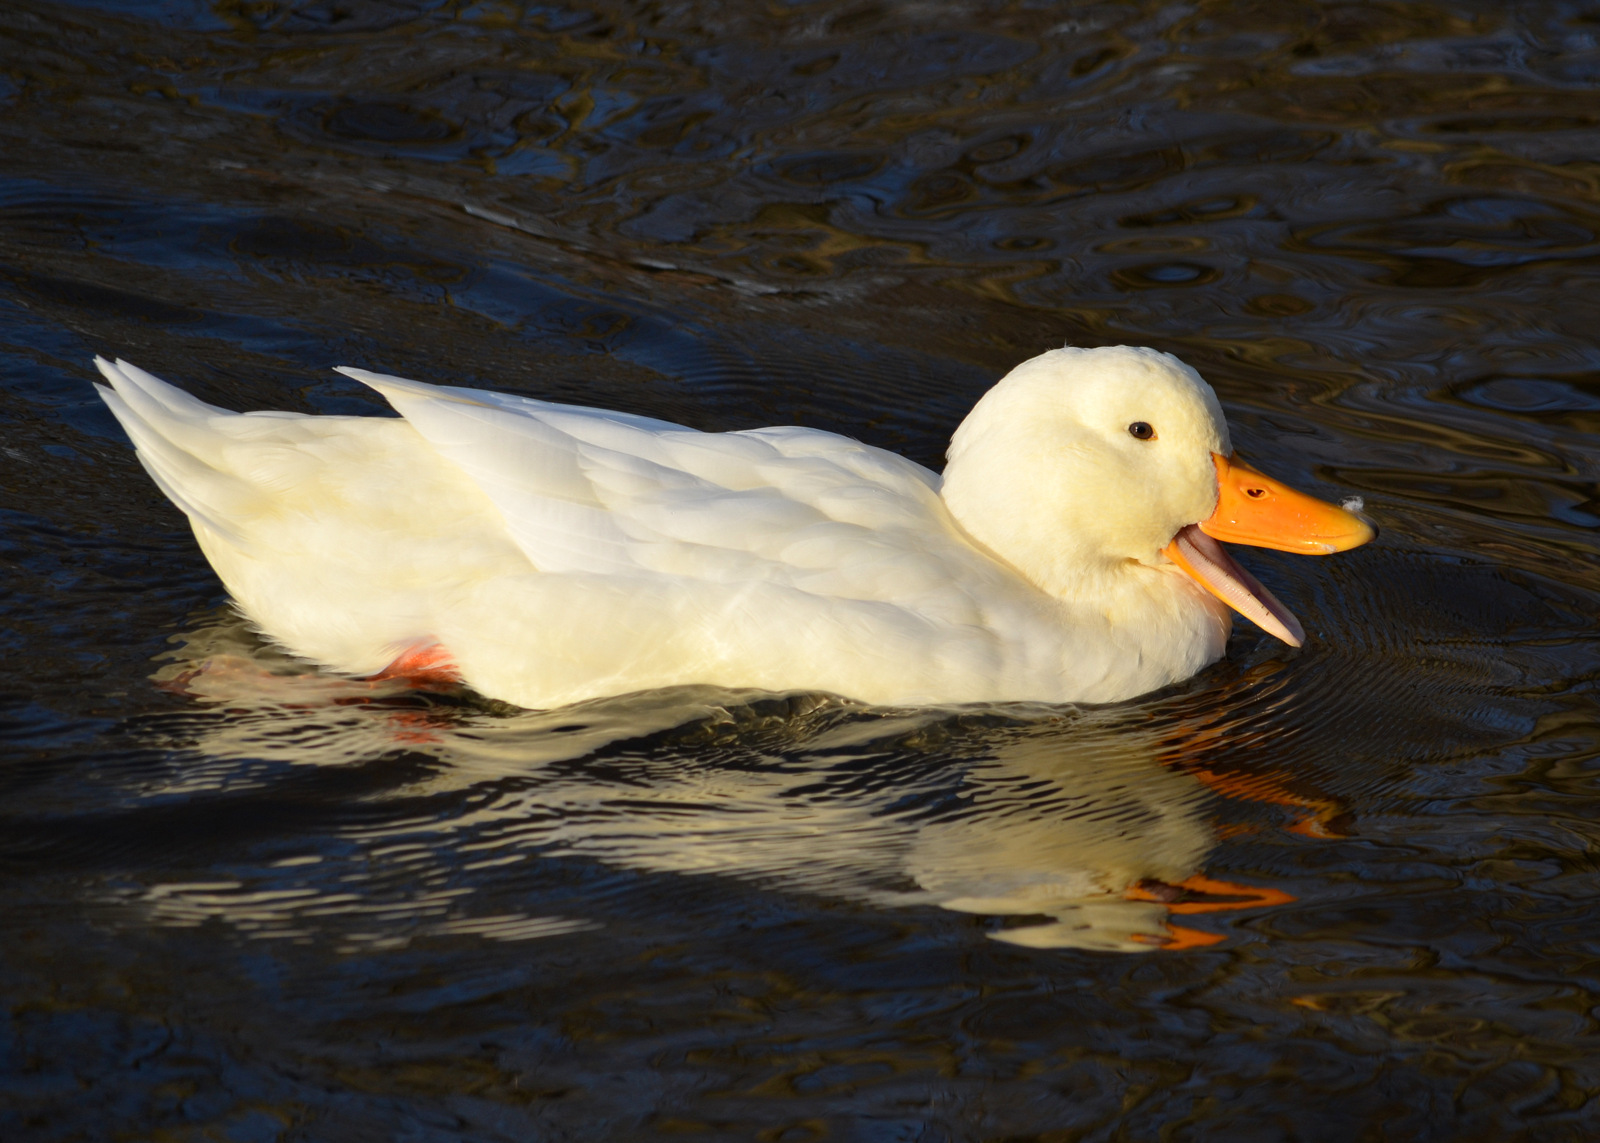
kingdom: Animalia
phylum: Chordata
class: Aves
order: Anseriformes
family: Anatidae
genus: Anas
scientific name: Anas platyrhynchos
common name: Mallard
